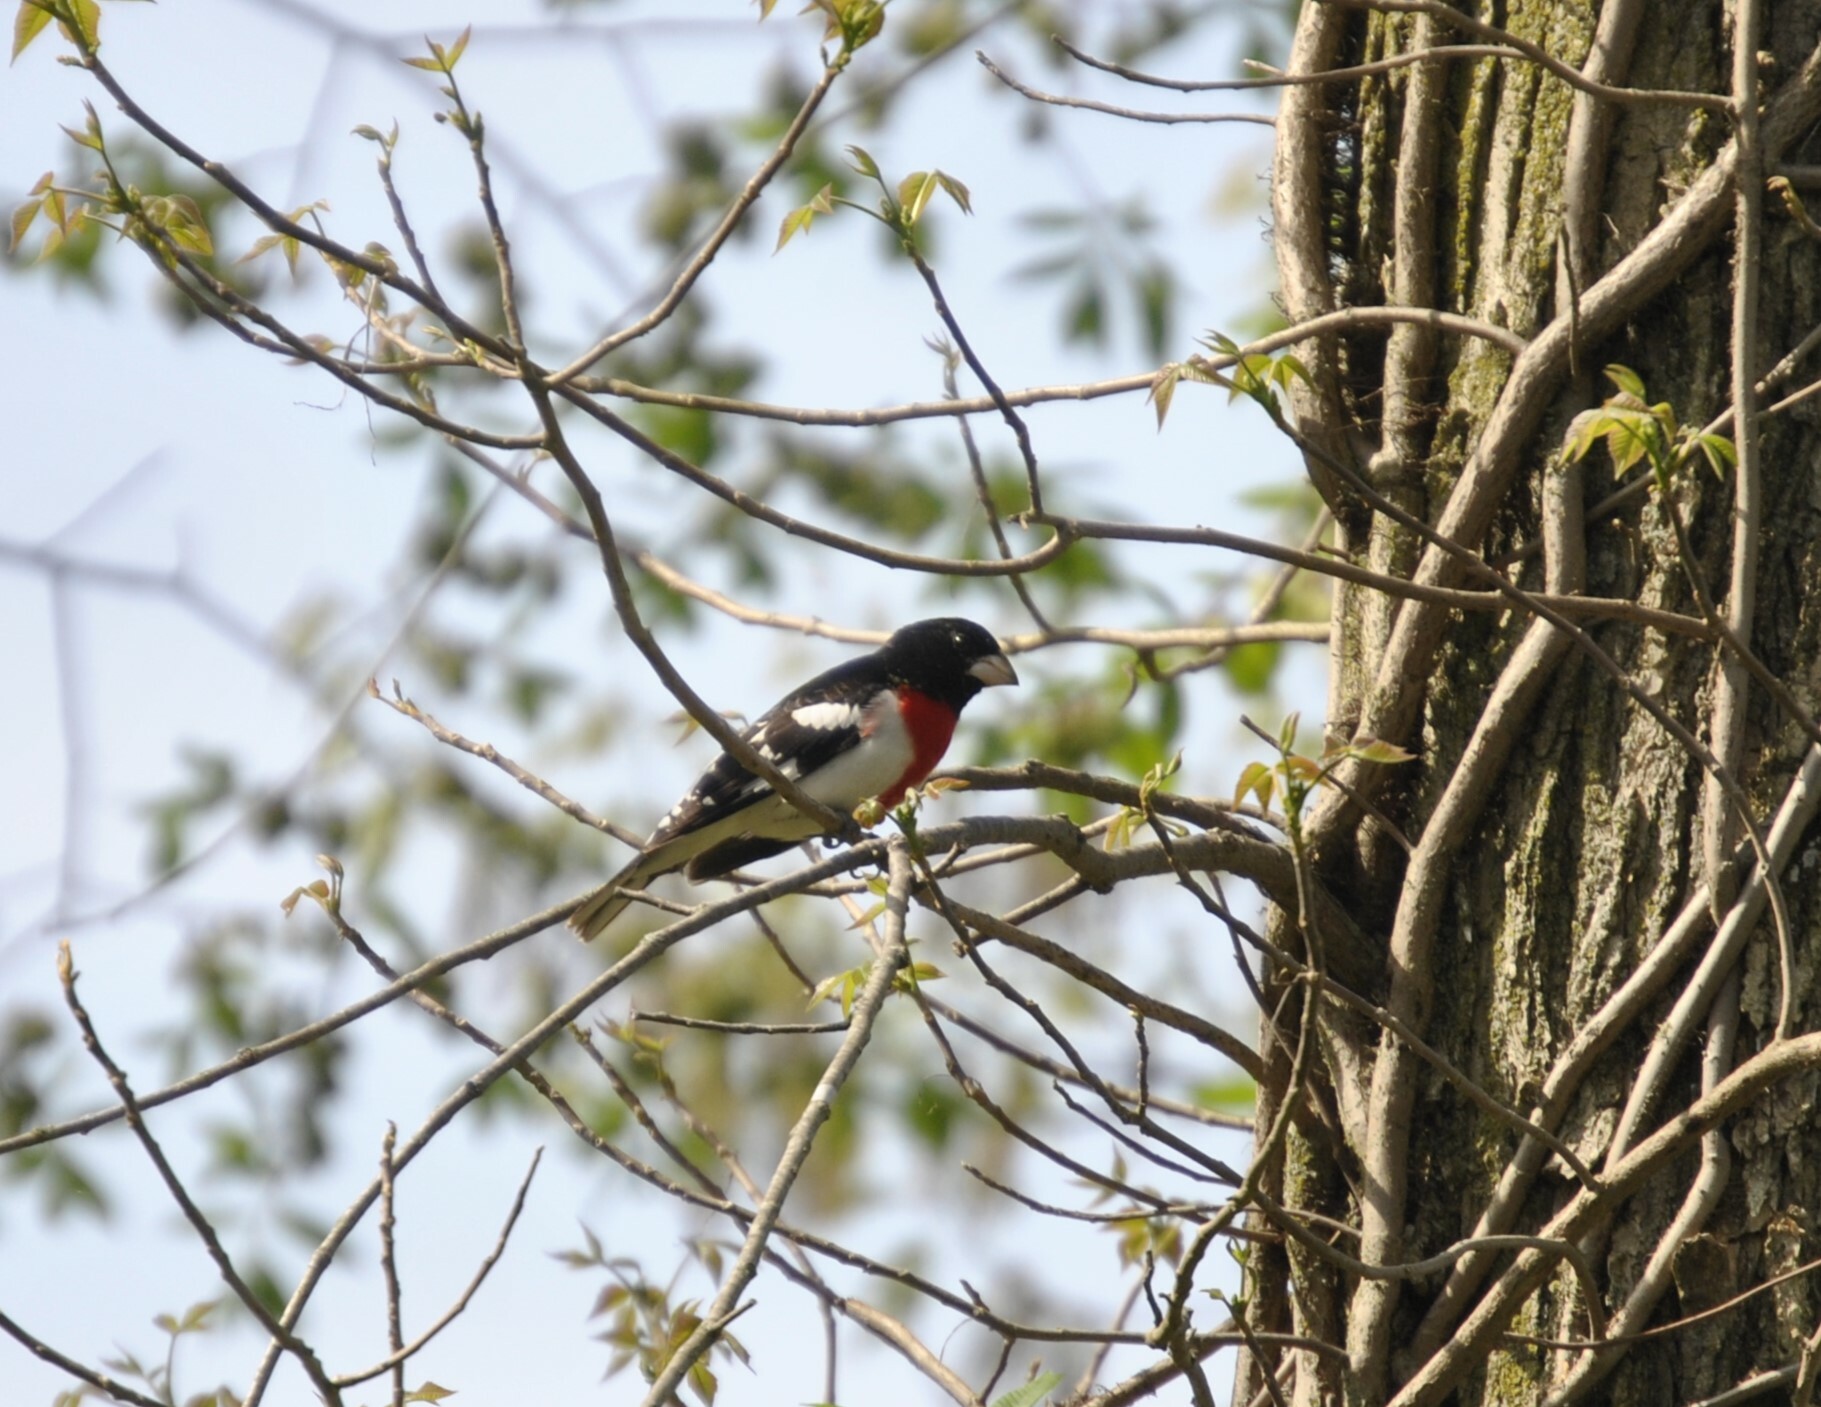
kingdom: Animalia
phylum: Chordata
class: Aves
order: Passeriformes
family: Cardinalidae
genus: Pheucticus
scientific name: Pheucticus ludovicianus
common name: Rose-breasted grosbeak
